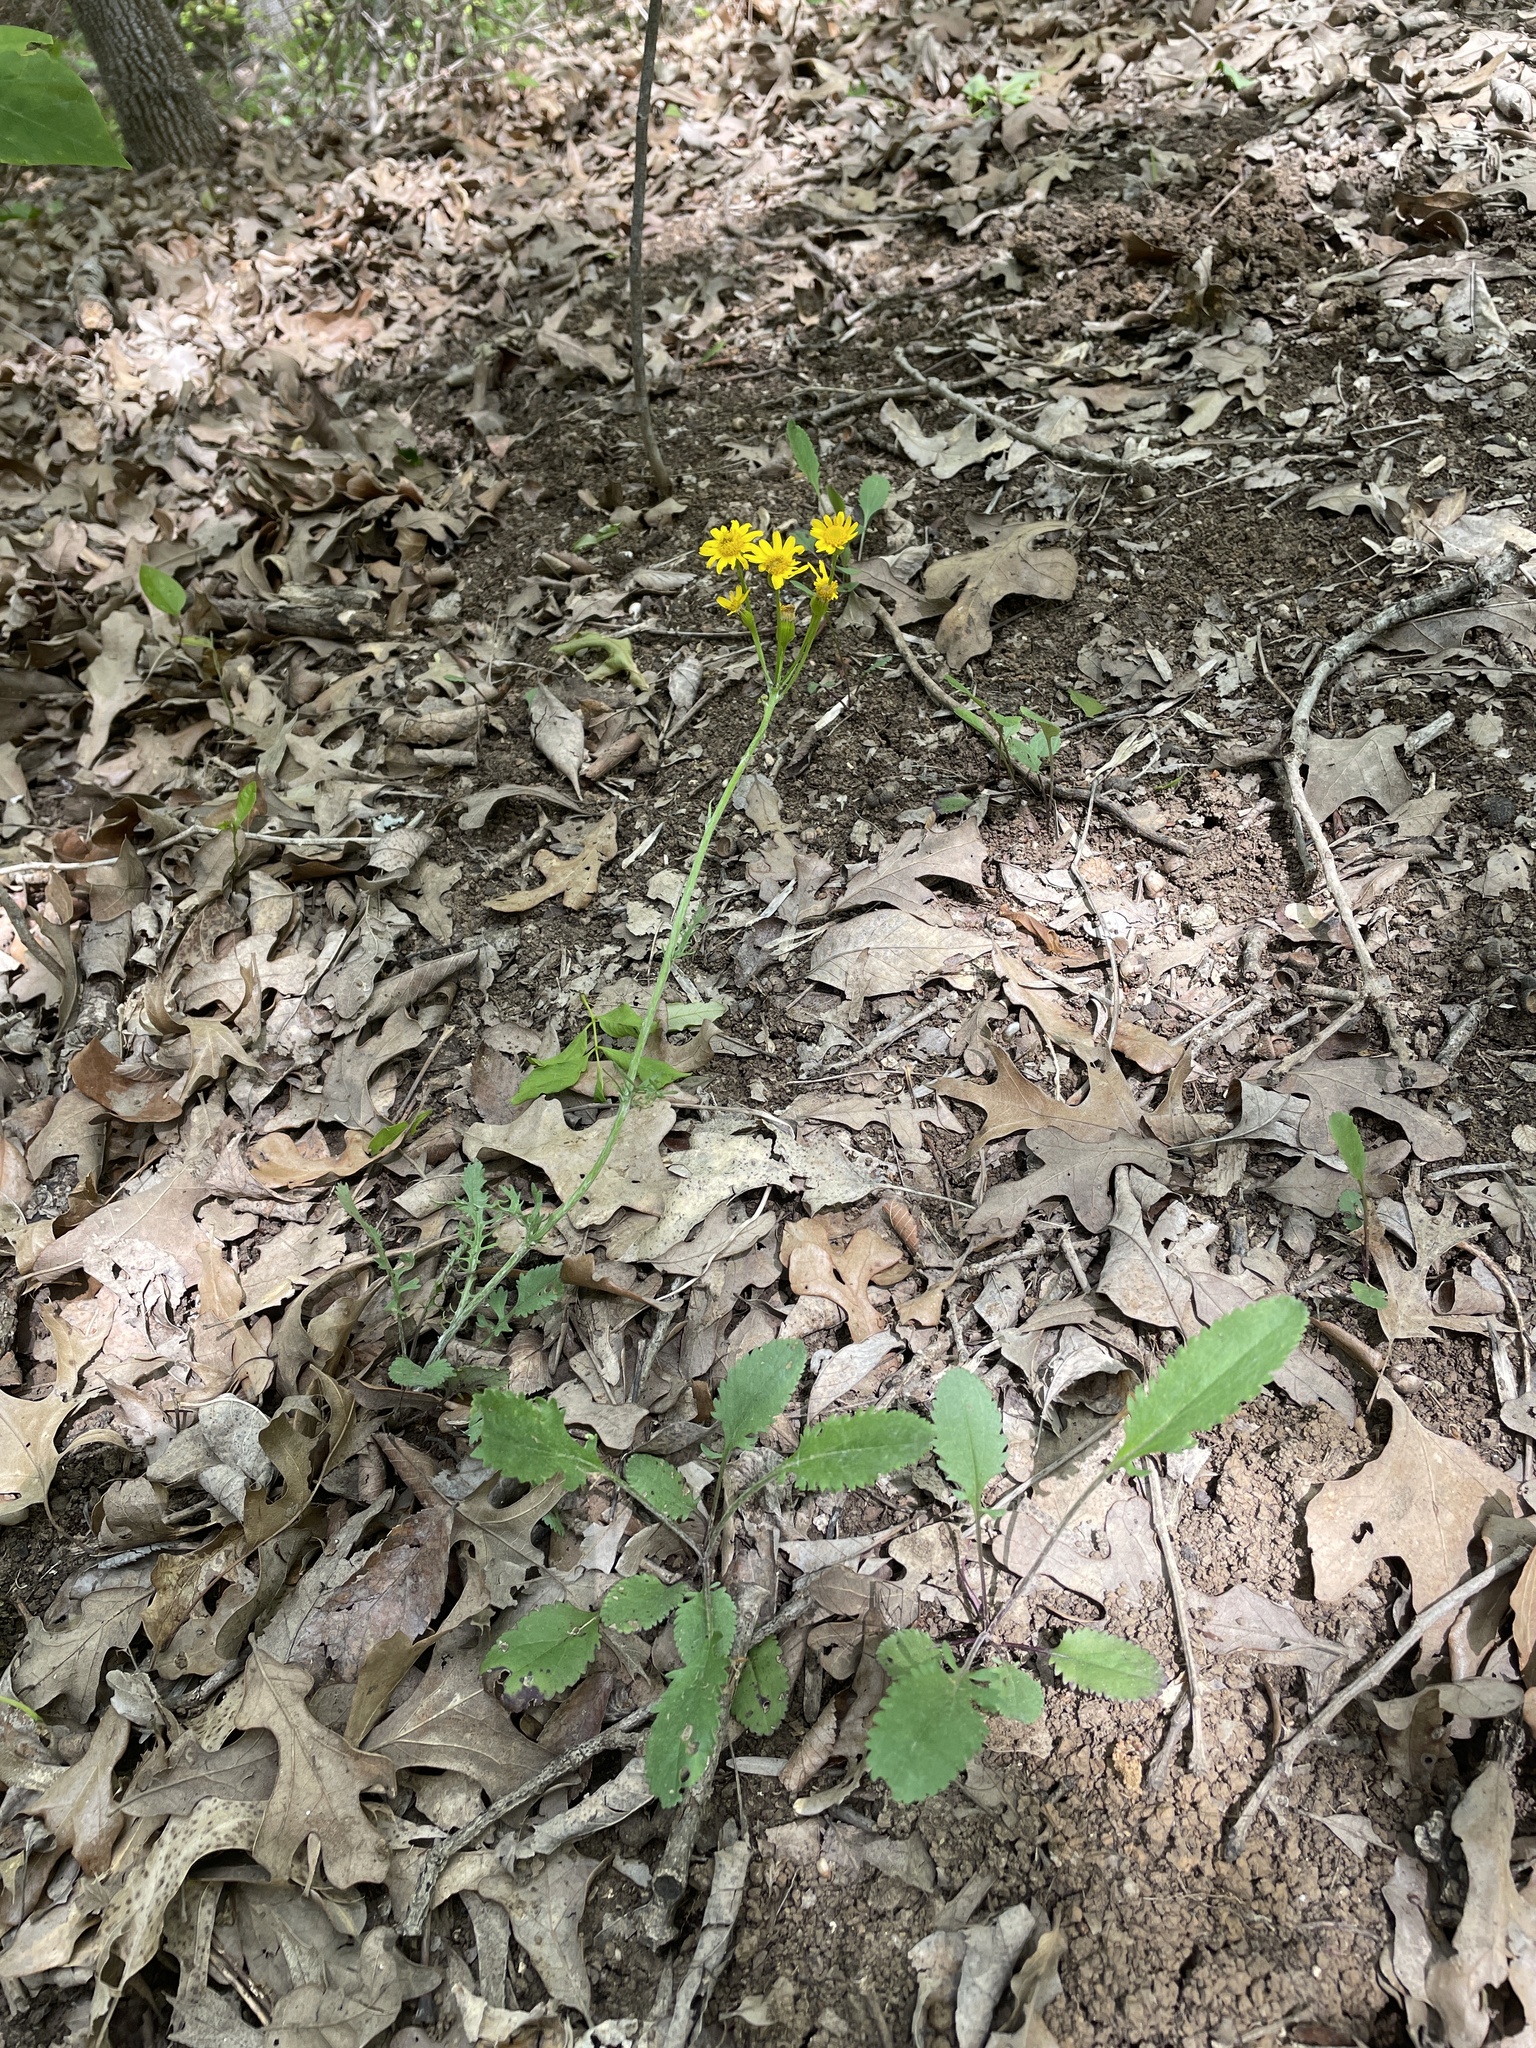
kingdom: Plantae
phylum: Tracheophyta
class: Magnoliopsida
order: Asterales
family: Asteraceae
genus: Packera
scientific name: Packera plattensis
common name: Prairie groundsel
